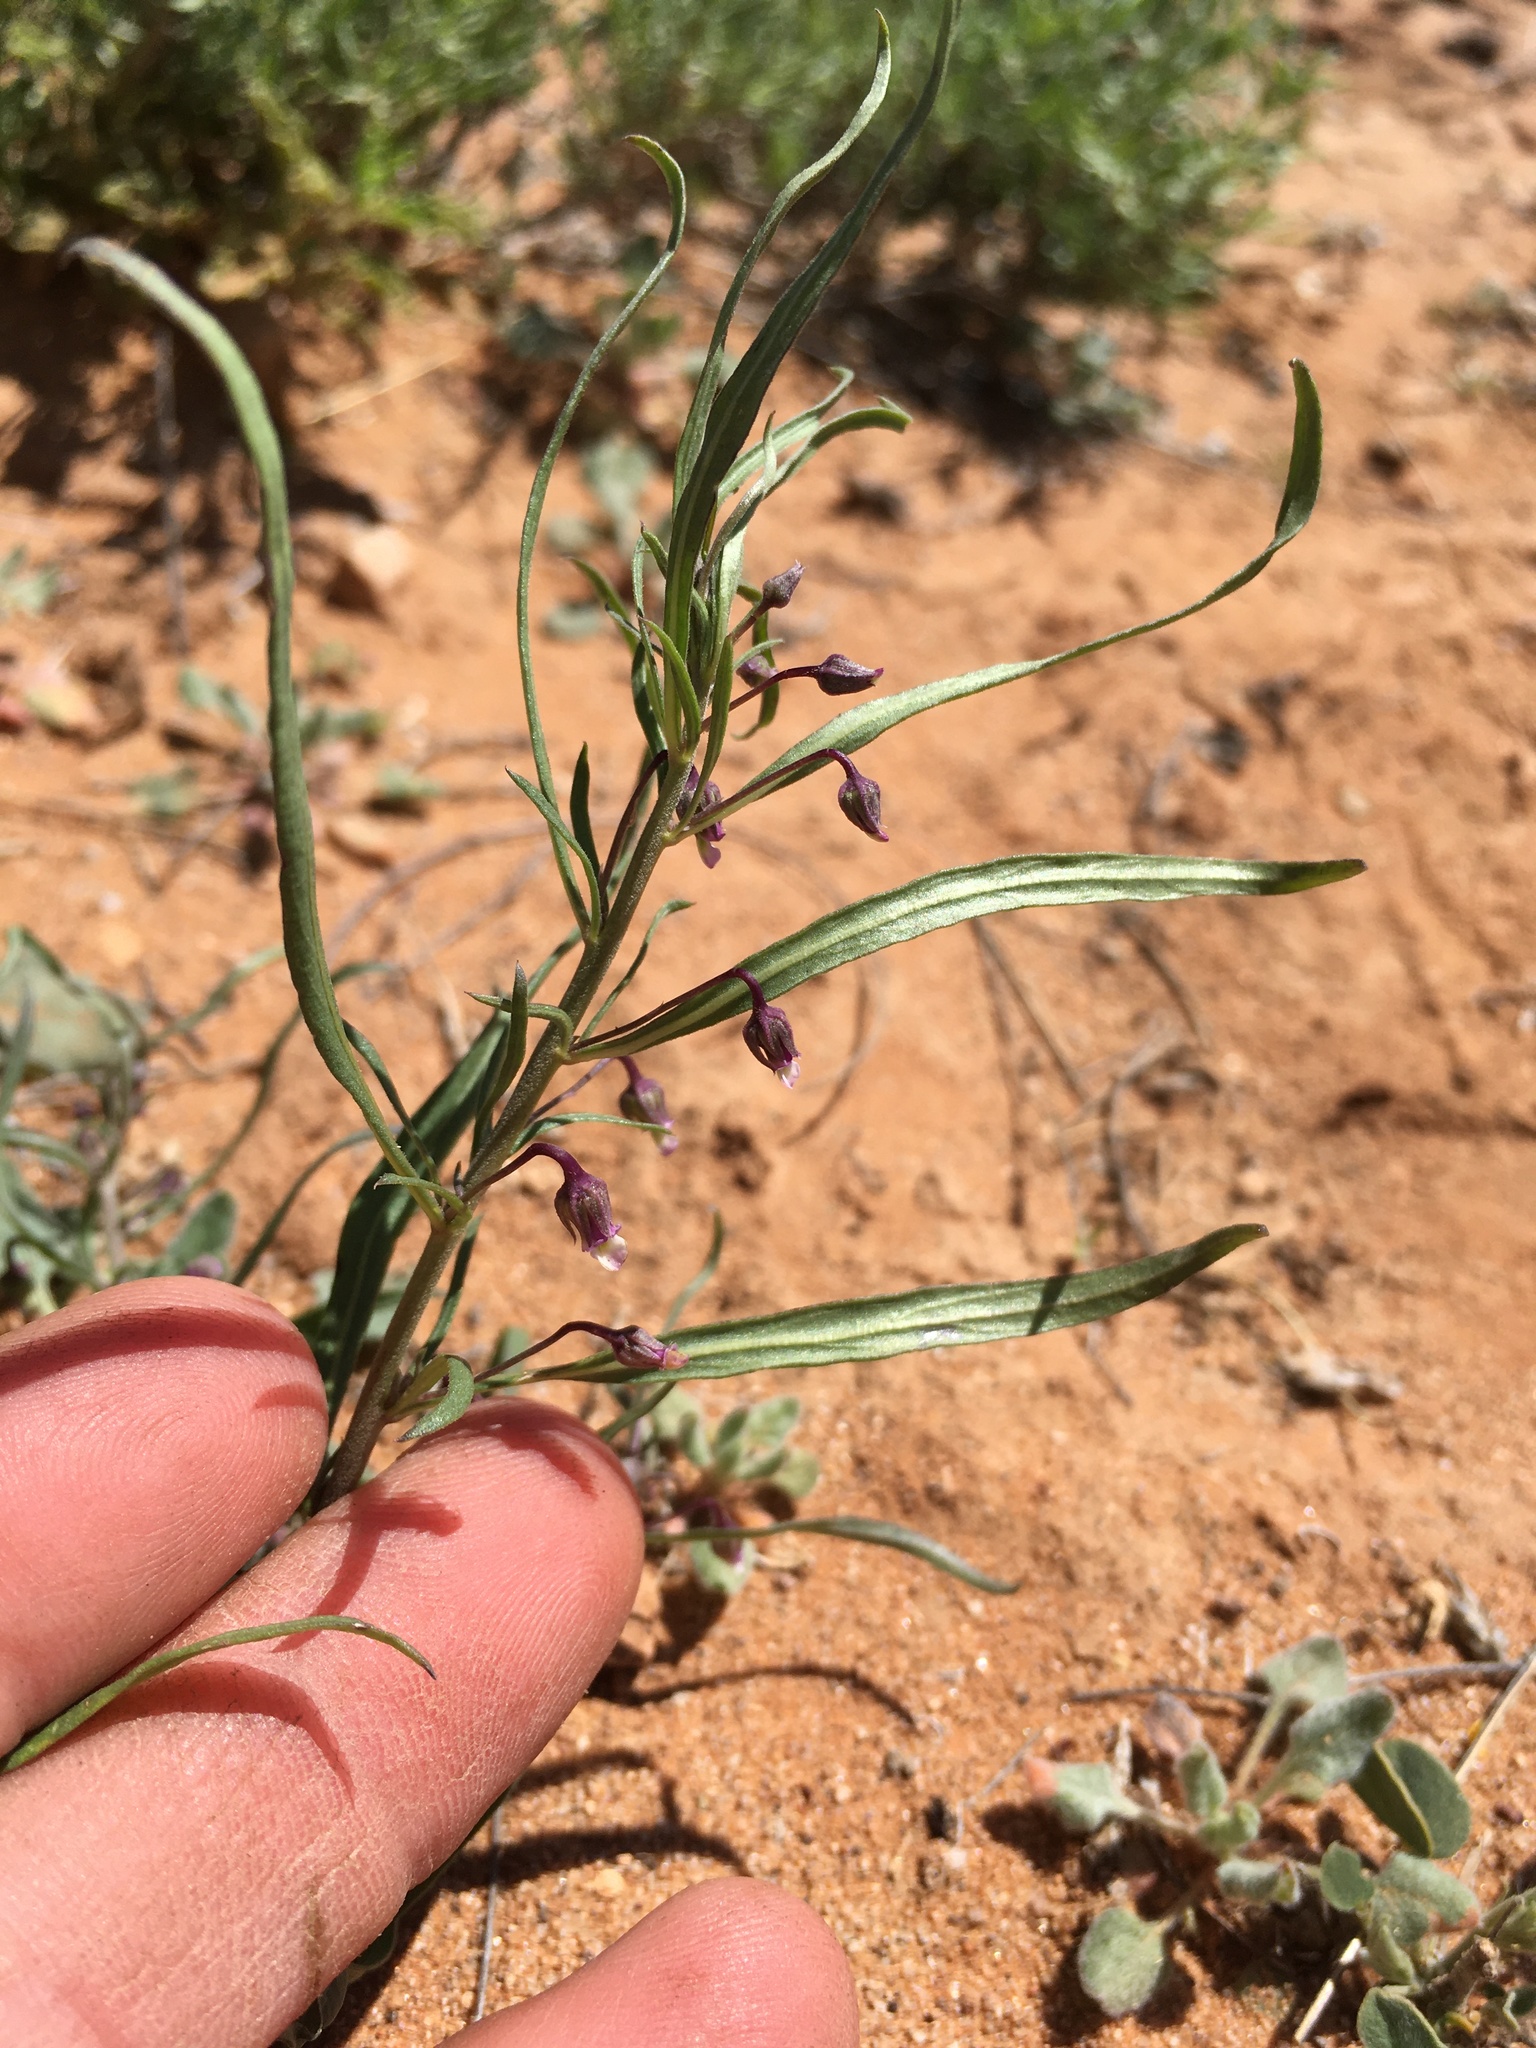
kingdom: Plantae
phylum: Tracheophyta
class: Magnoliopsida
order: Malpighiales
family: Violaceae
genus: Pombalia
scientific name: Pombalia verticillata
